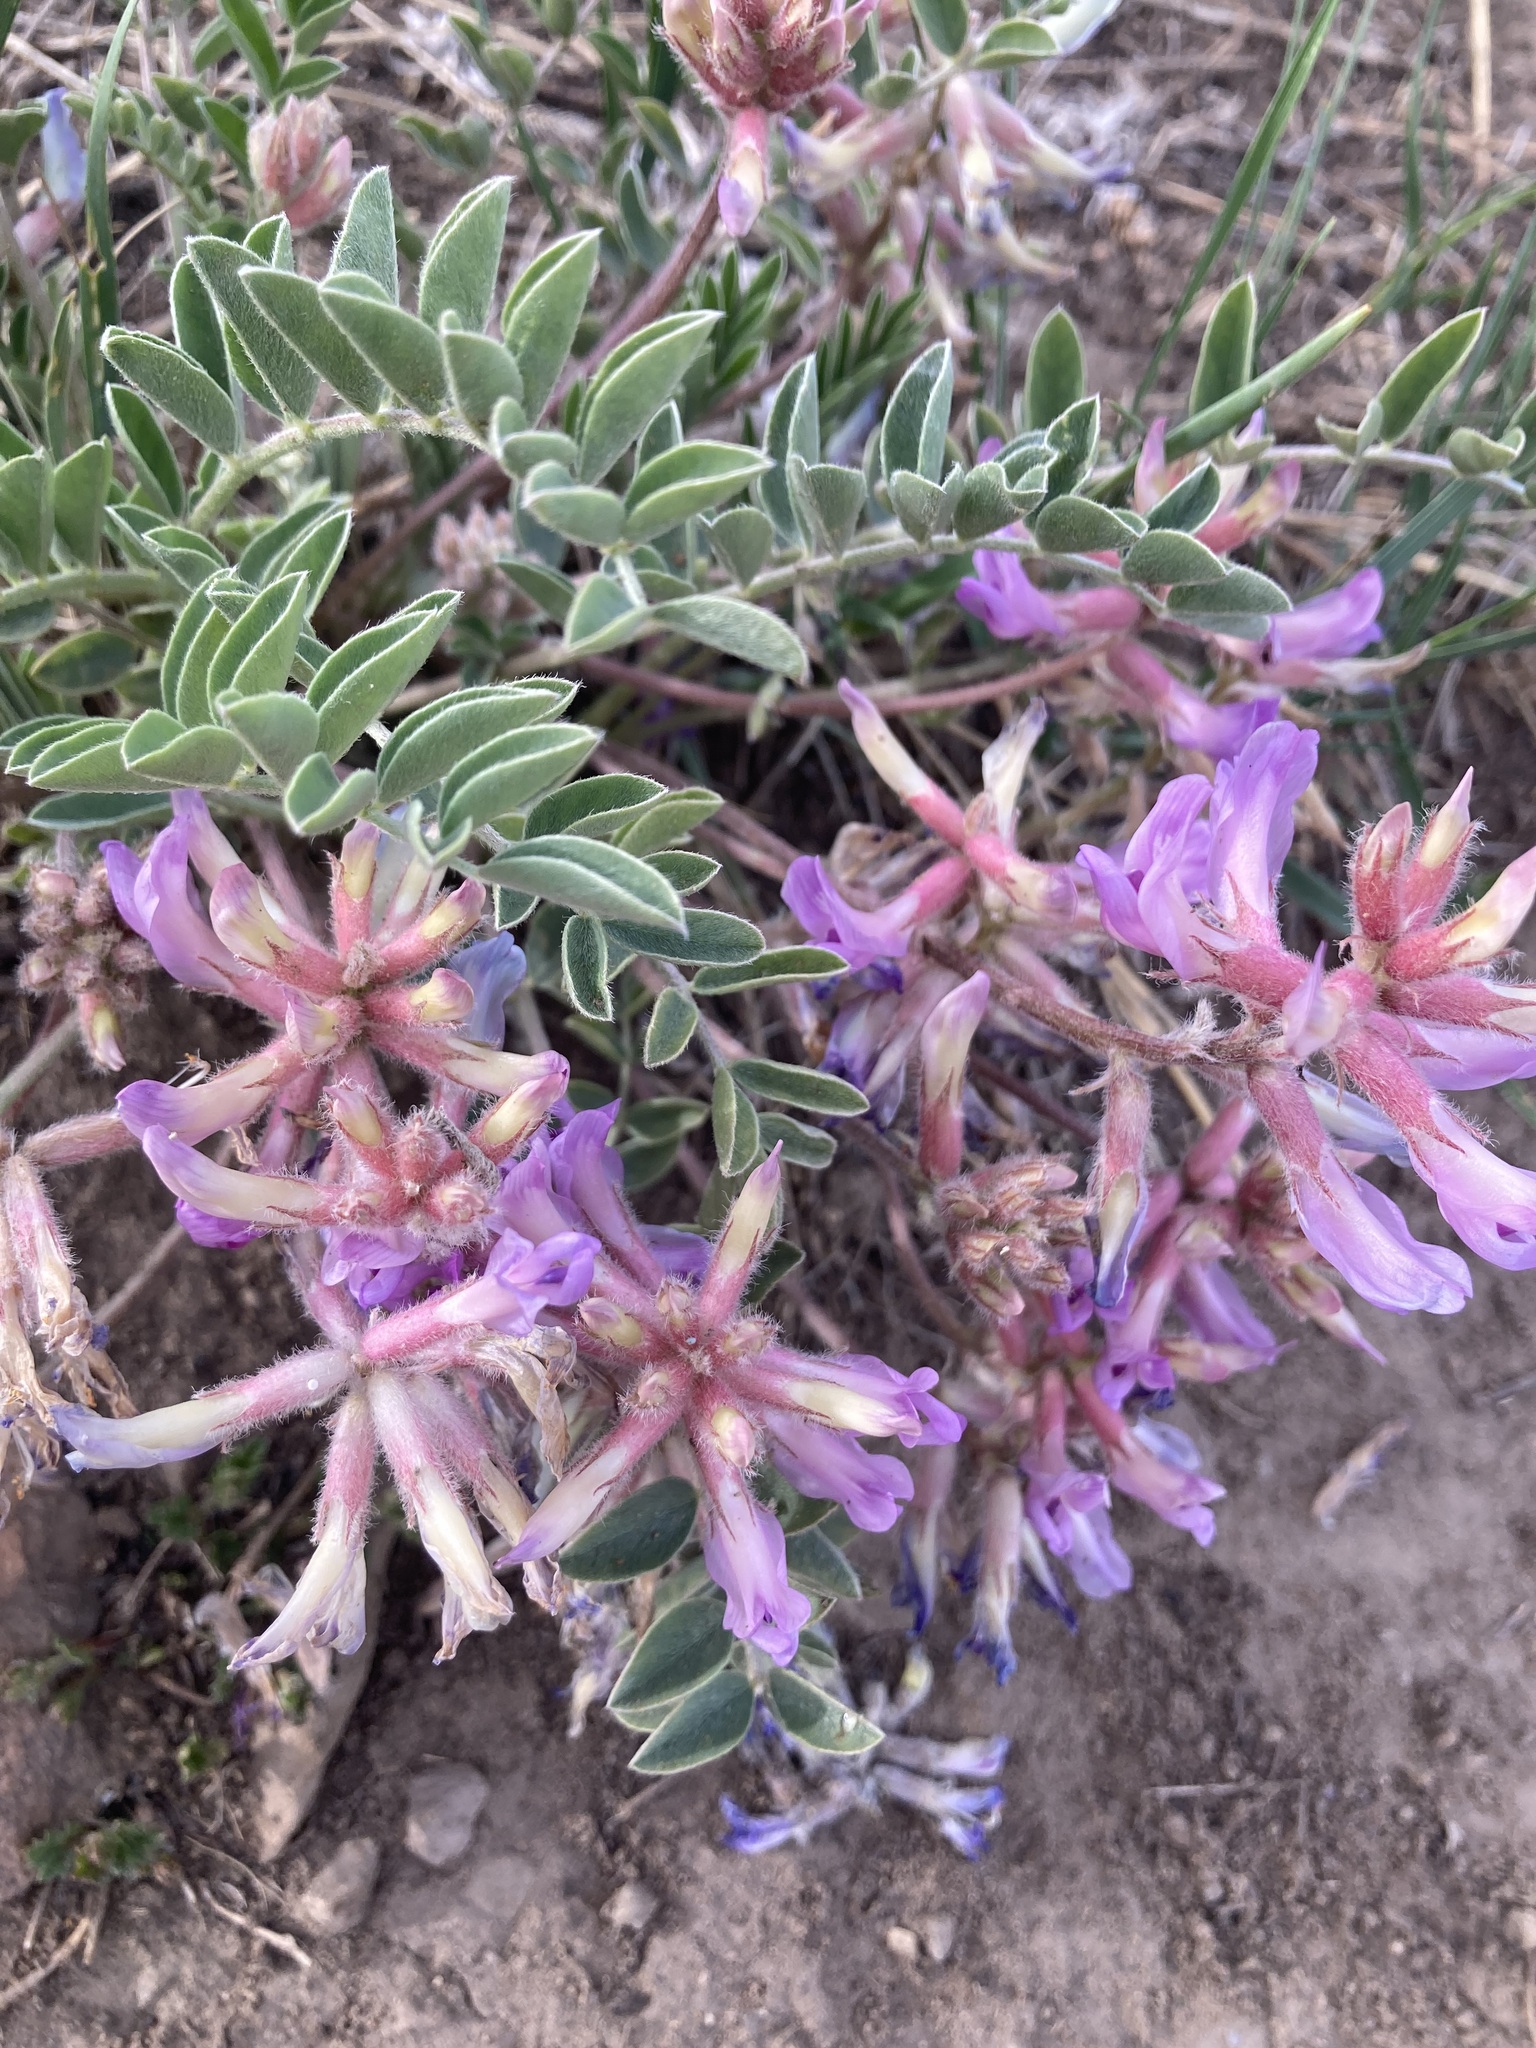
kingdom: Plantae
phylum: Tracheophyta
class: Magnoliopsida
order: Fabales
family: Fabaceae
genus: Astragalus
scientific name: Astragalus shortianus
